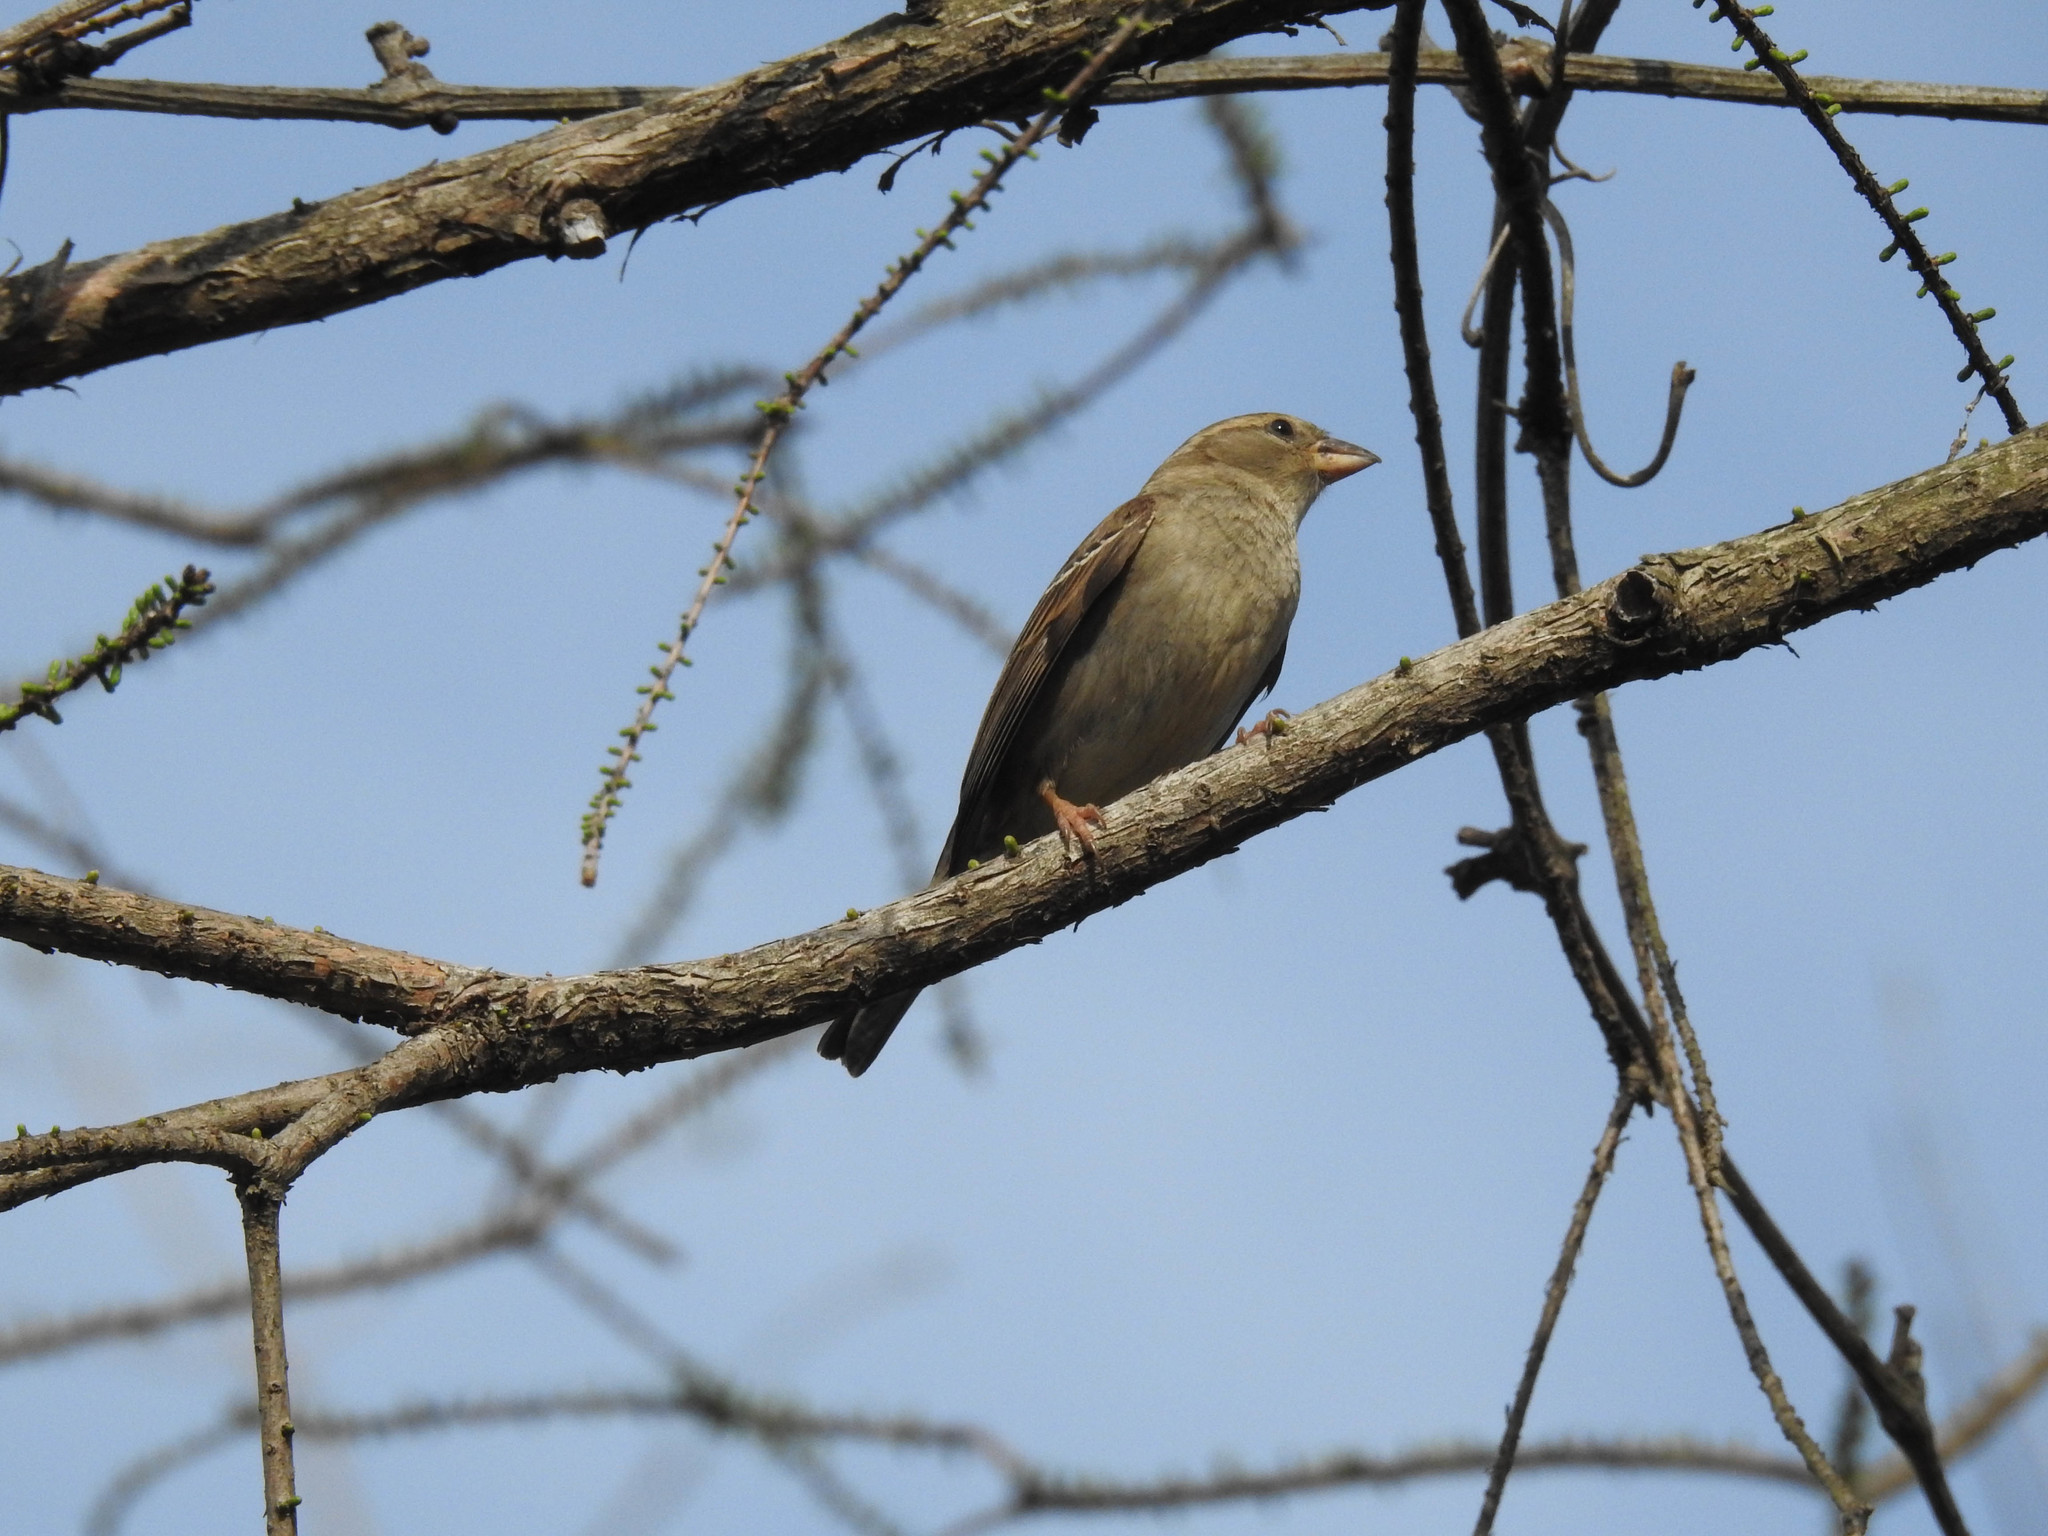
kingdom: Animalia
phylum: Chordata
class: Aves
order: Passeriformes
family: Passeridae
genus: Passer
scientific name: Passer domesticus
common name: House sparrow
